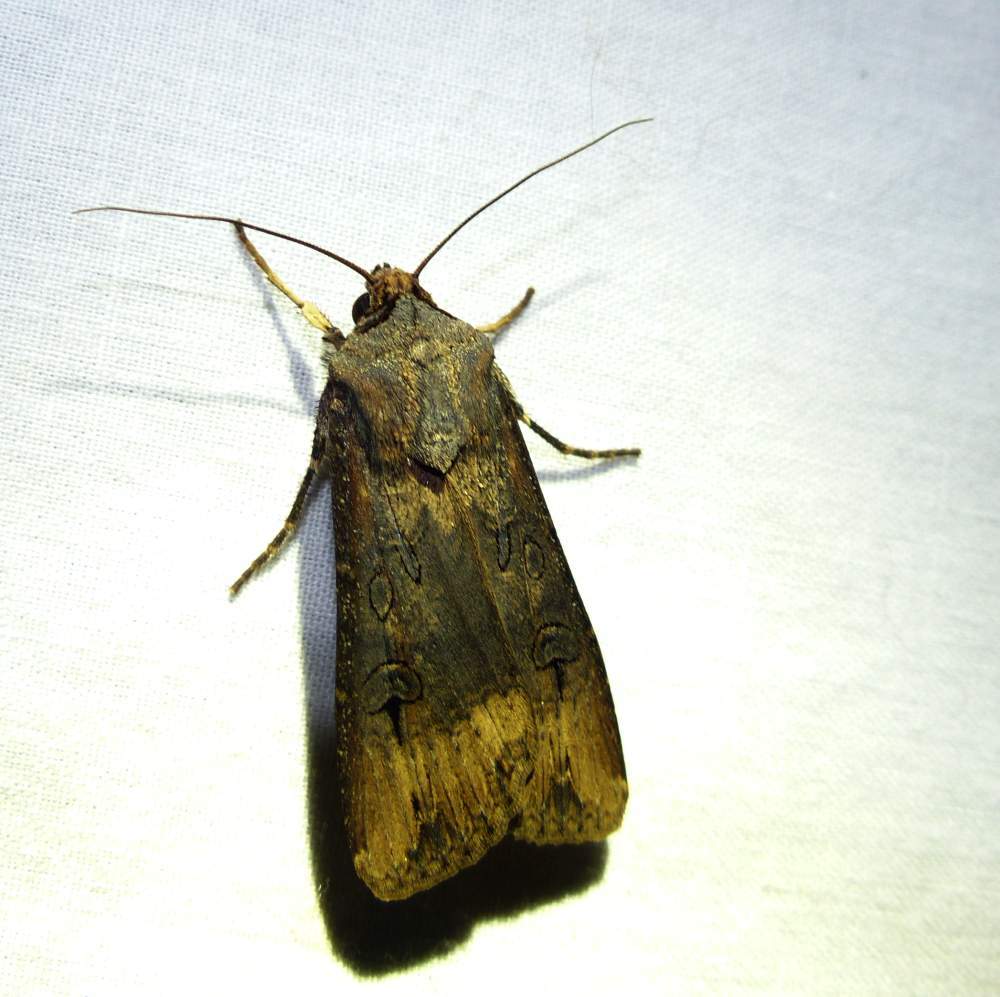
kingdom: Animalia
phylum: Arthropoda
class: Insecta
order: Lepidoptera
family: Noctuidae
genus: Agrotis
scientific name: Agrotis ipsilon
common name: Dark sword-grass
